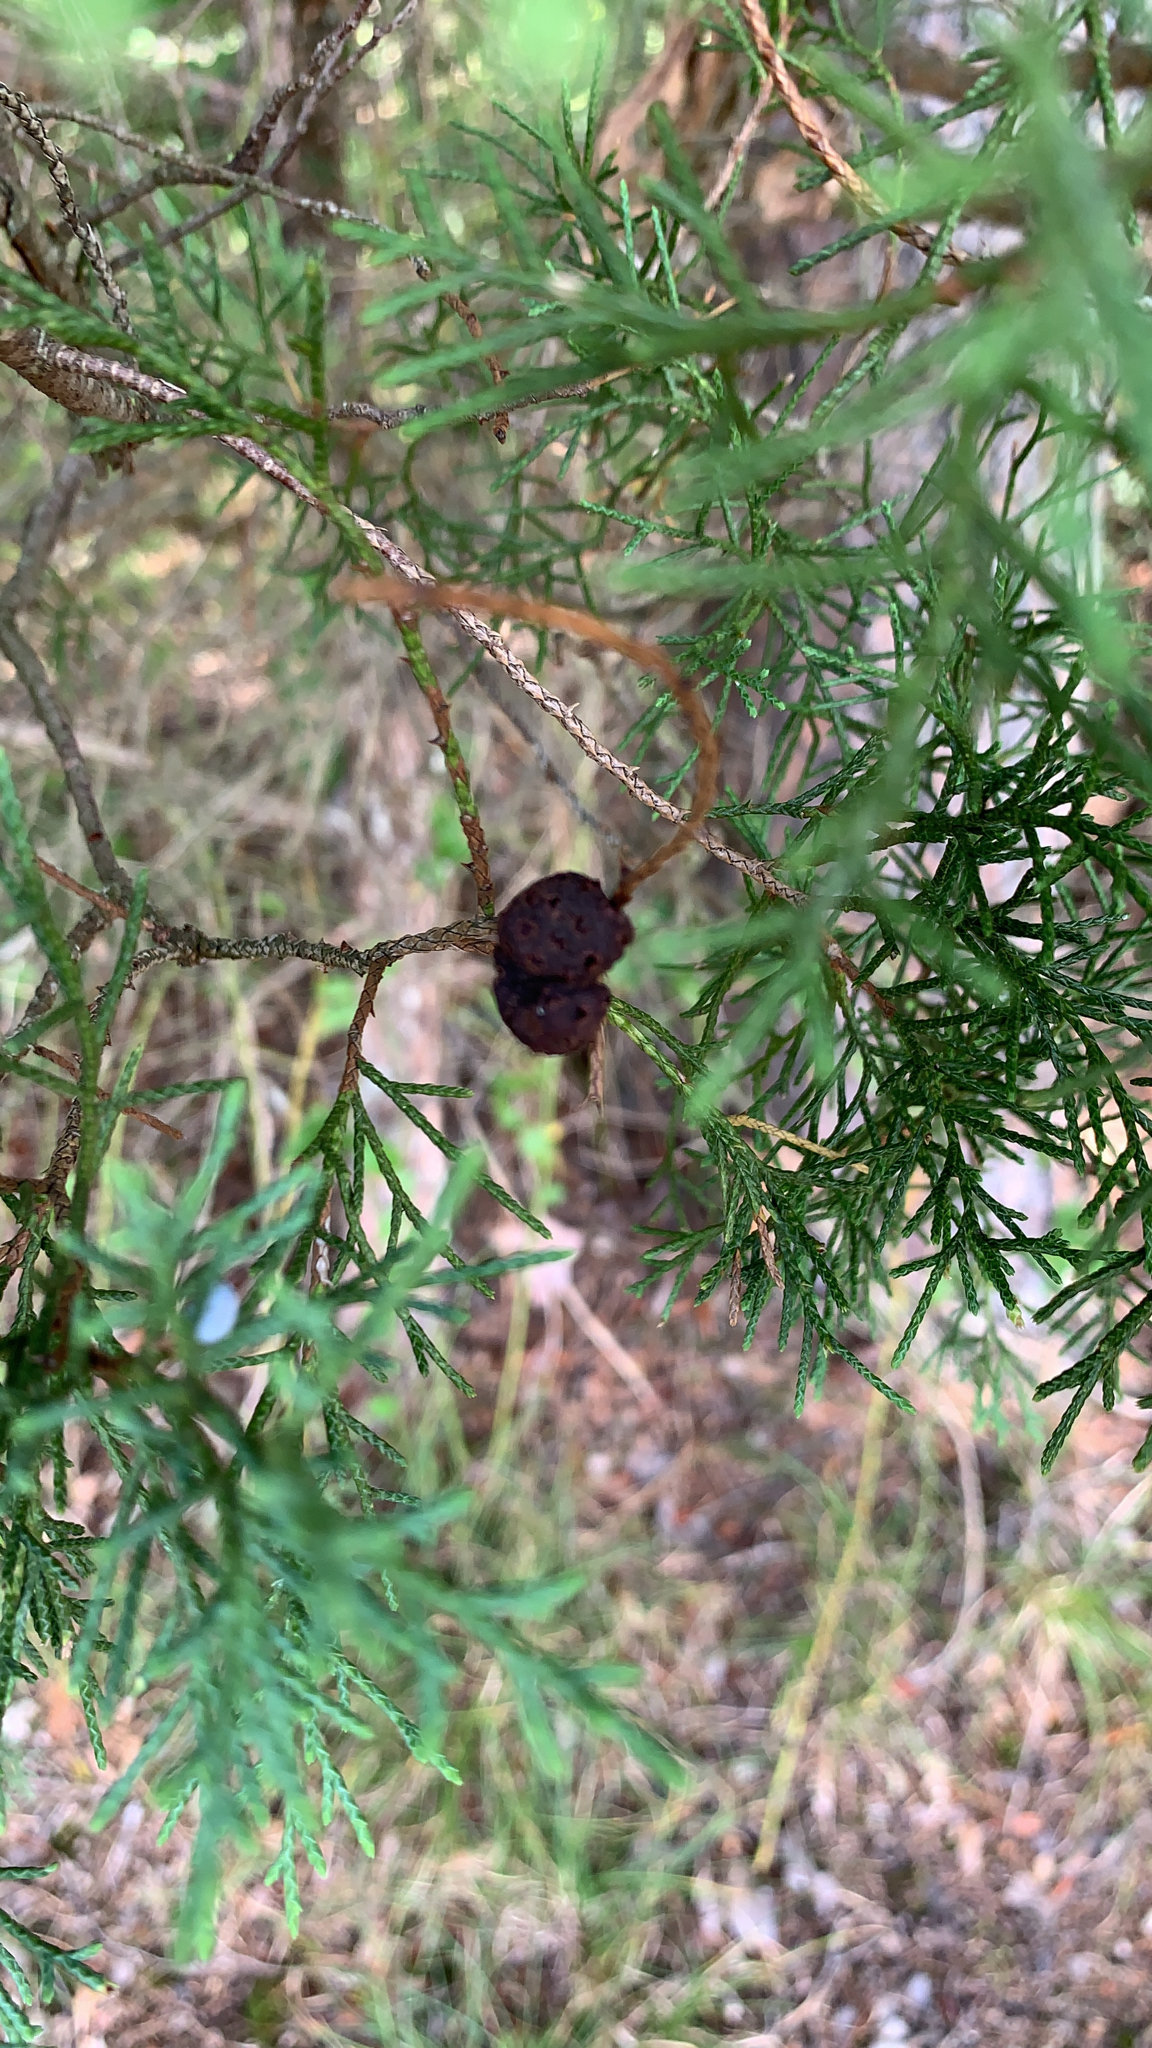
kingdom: Fungi
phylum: Basidiomycota
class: Pucciniomycetes
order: Pucciniales
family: Gymnosporangiaceae
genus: Gymnosporangium
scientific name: Gymnosporangium juniperi-virginianae
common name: Juniper-apple rust
